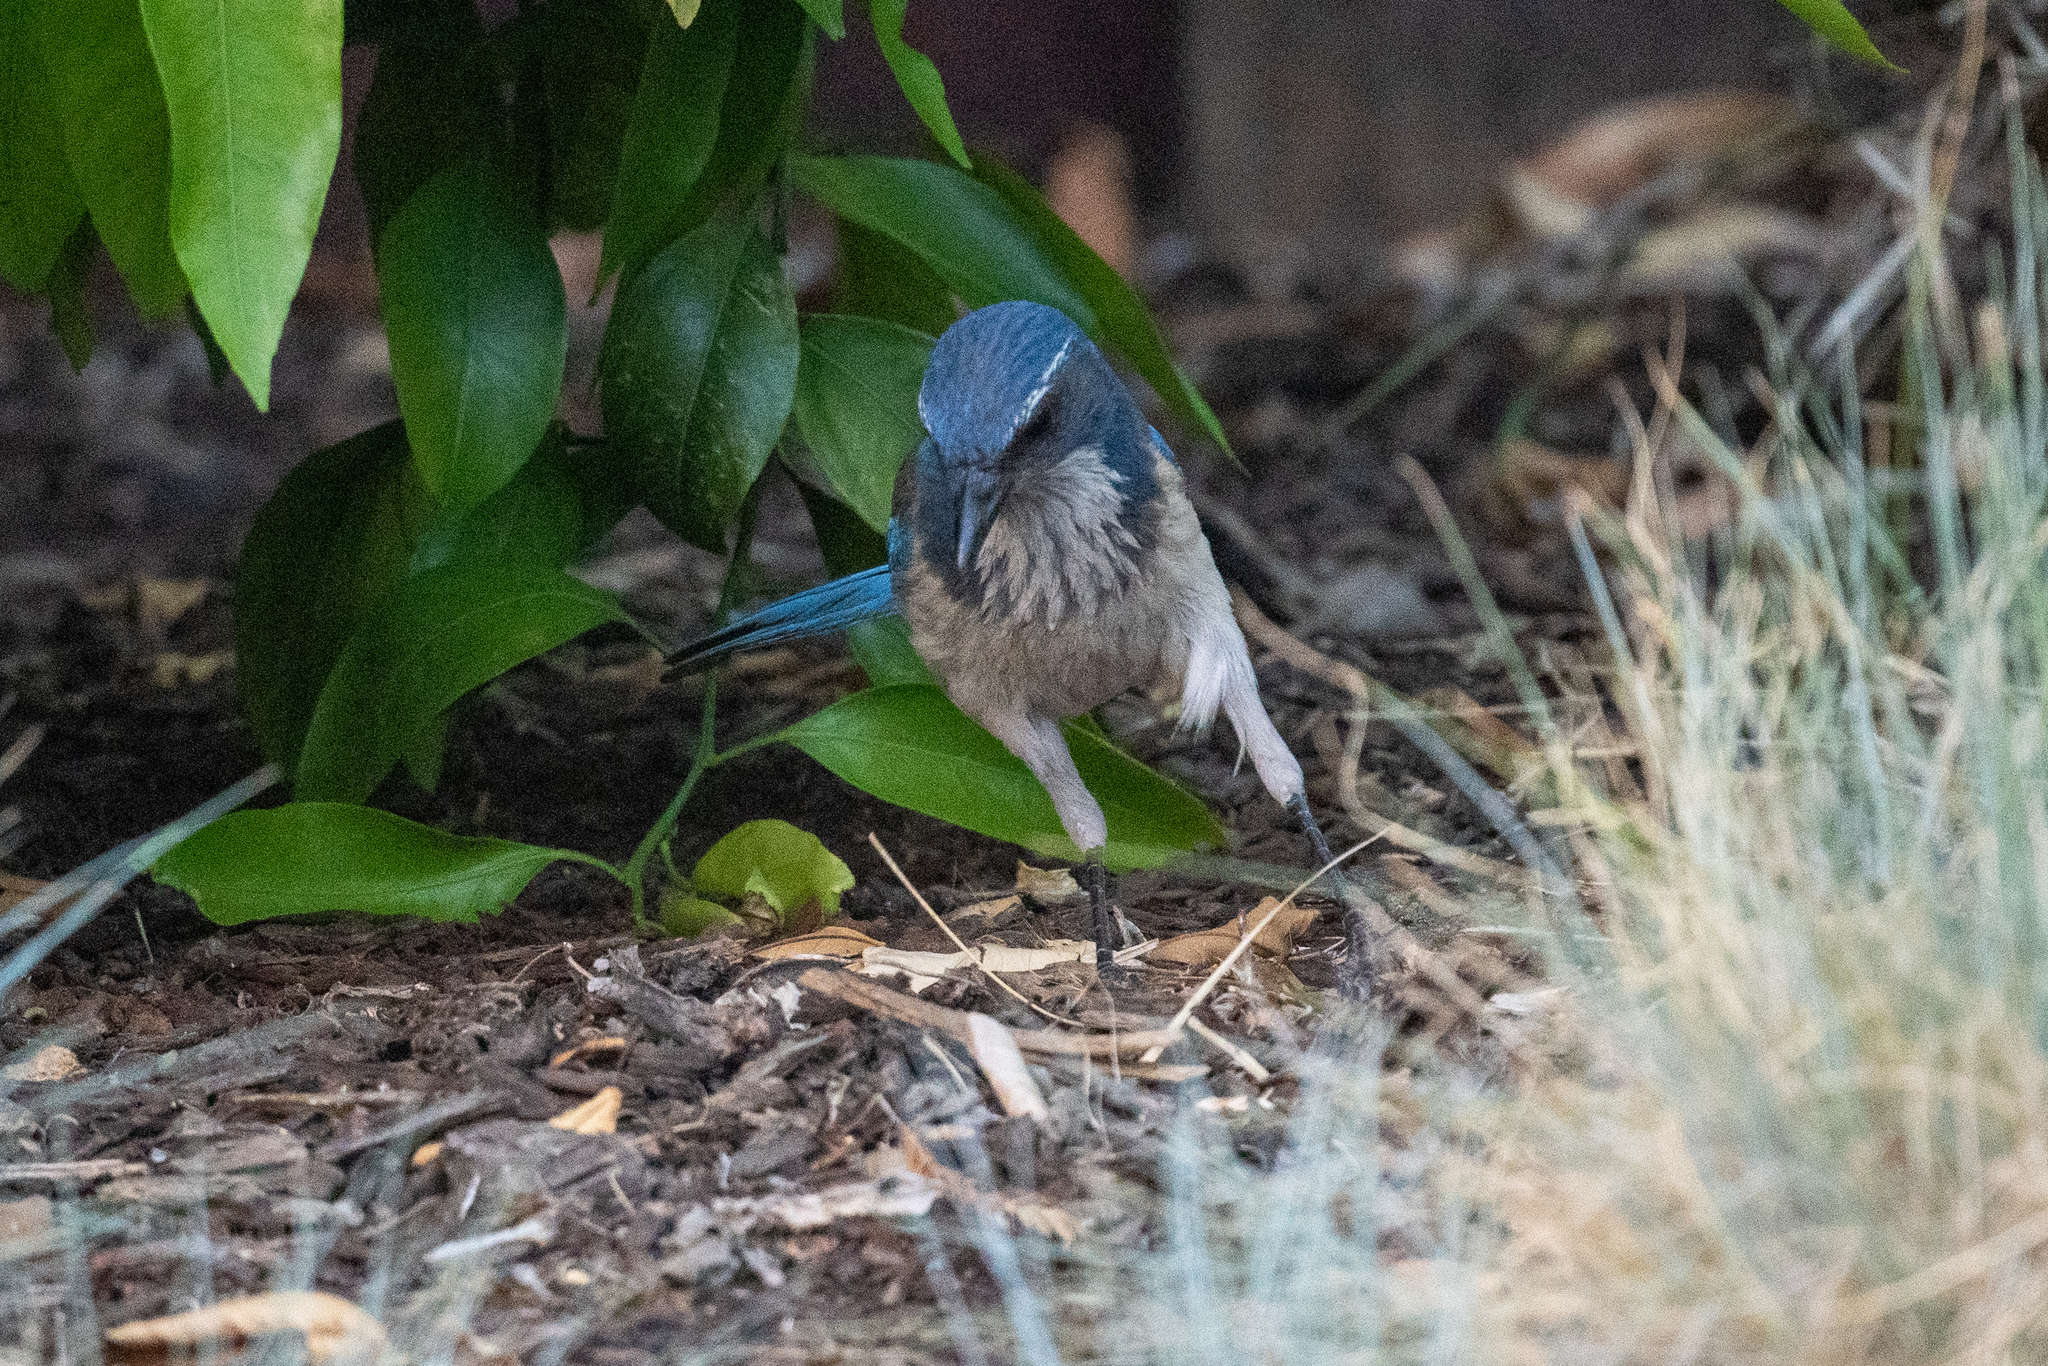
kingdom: Animalia
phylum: Chordata
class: Aves
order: Passeriformes
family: Corvidae
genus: Aphelocoma
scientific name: Aphelocoma californica
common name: California scrub-jay
